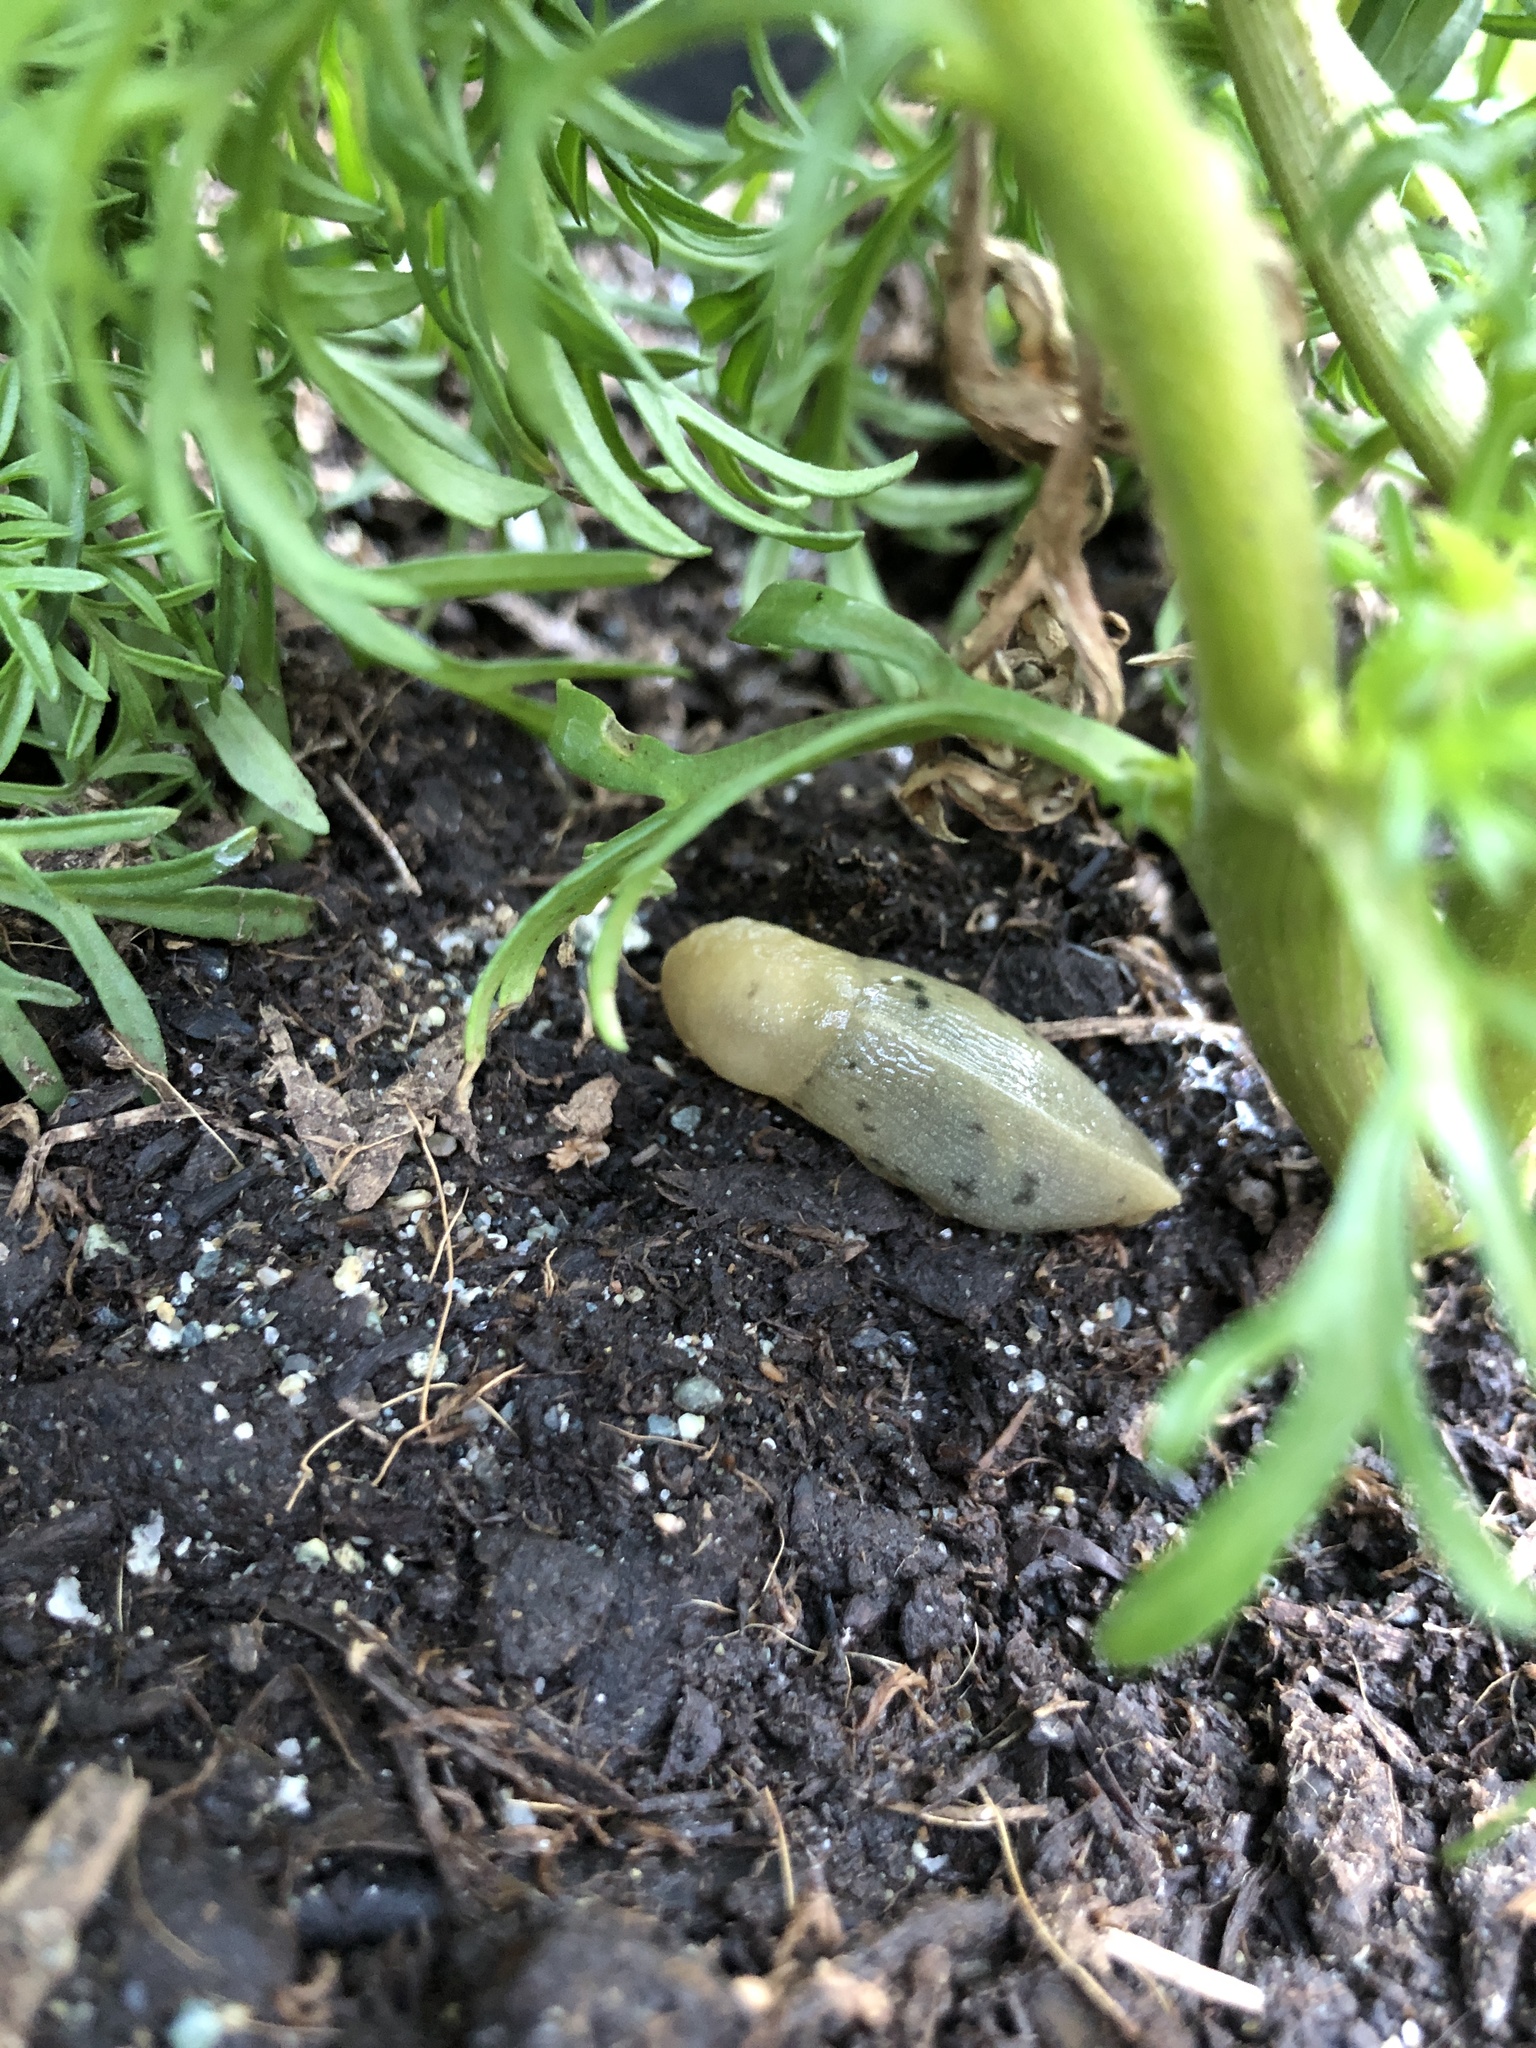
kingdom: Animalia
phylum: Mollusca
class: Gastropoda
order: Stylommatophora
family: Ariolimacidae
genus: Ariolimax
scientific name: Ariolimax columbianus
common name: Pacific banana slug
